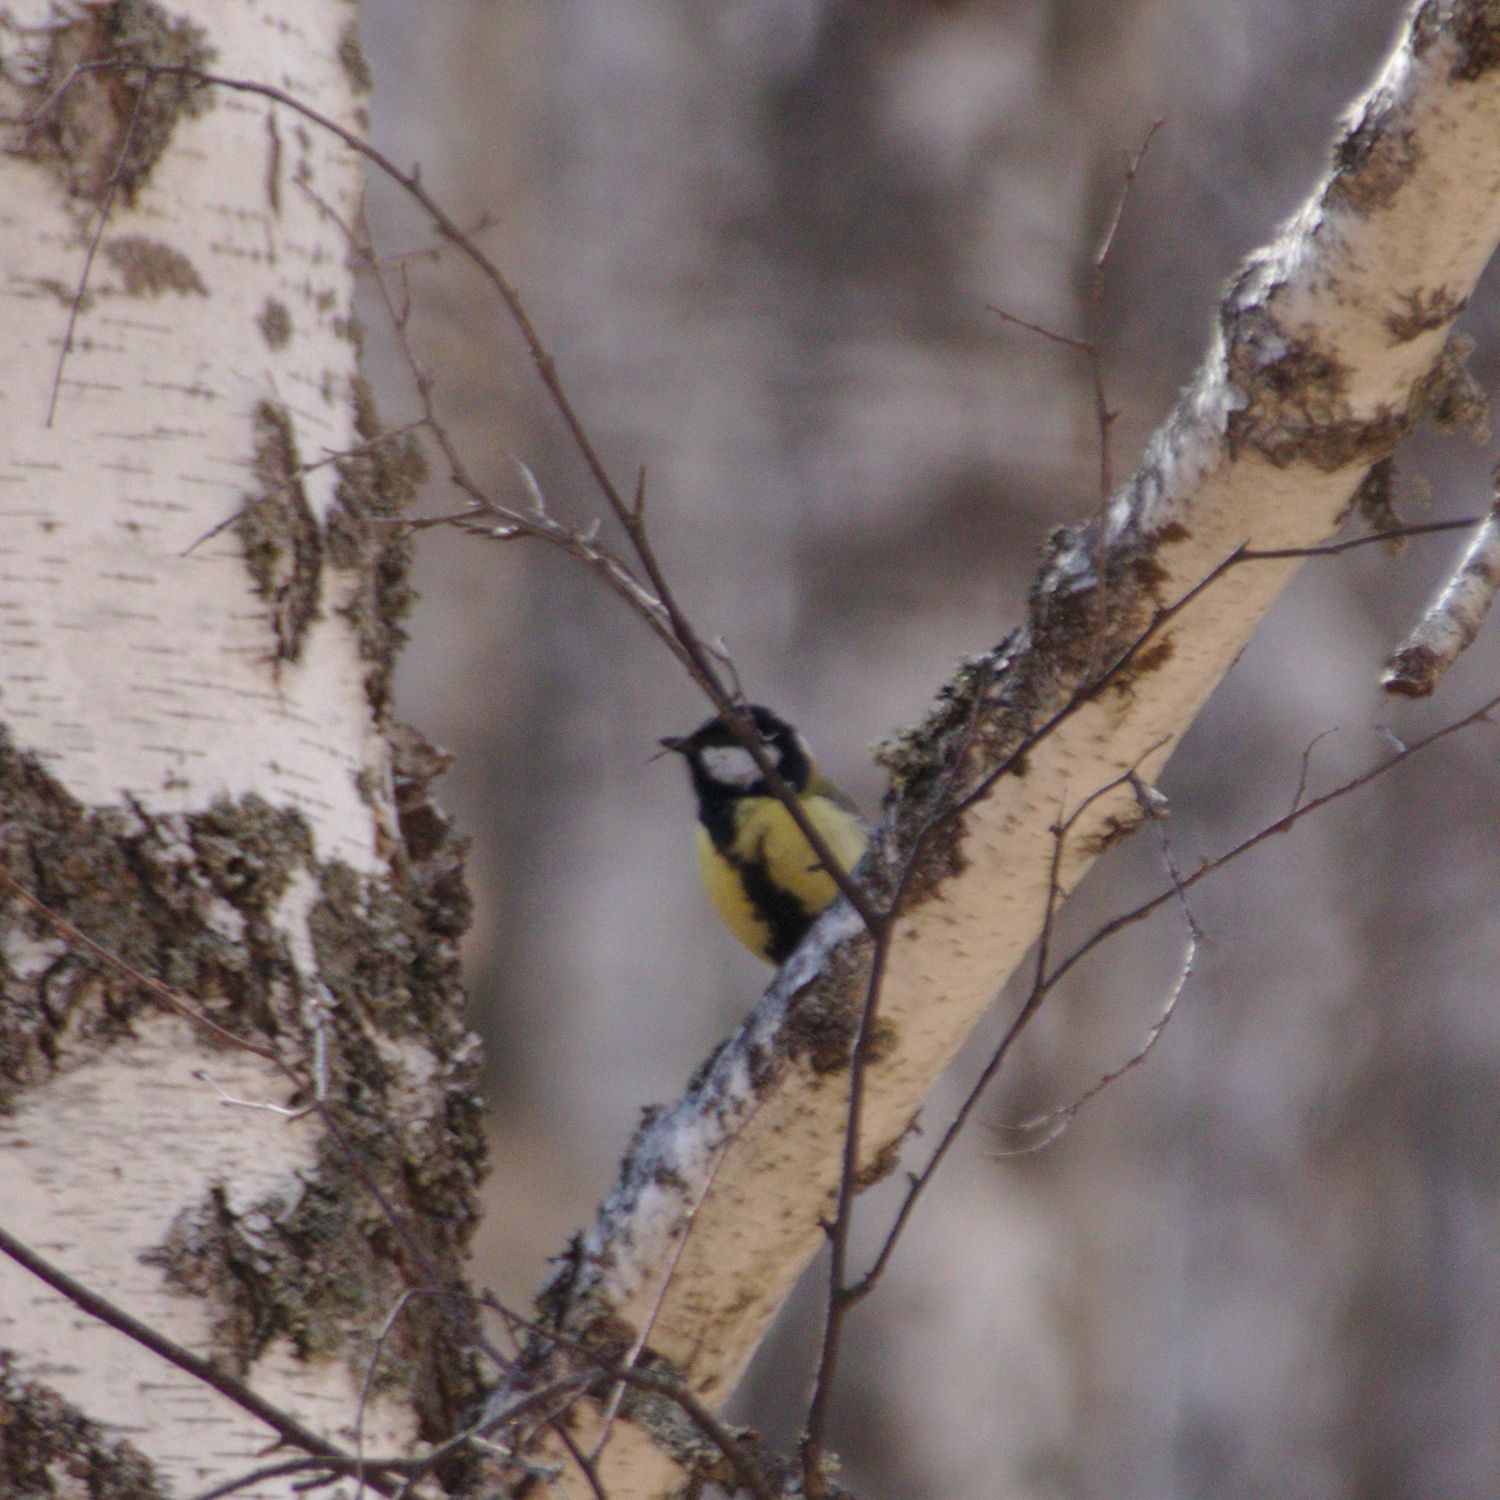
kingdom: Animalia
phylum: Chordata
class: Aves
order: Passeriformes
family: Paridae
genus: Parus
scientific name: Parus major
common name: Great tit
